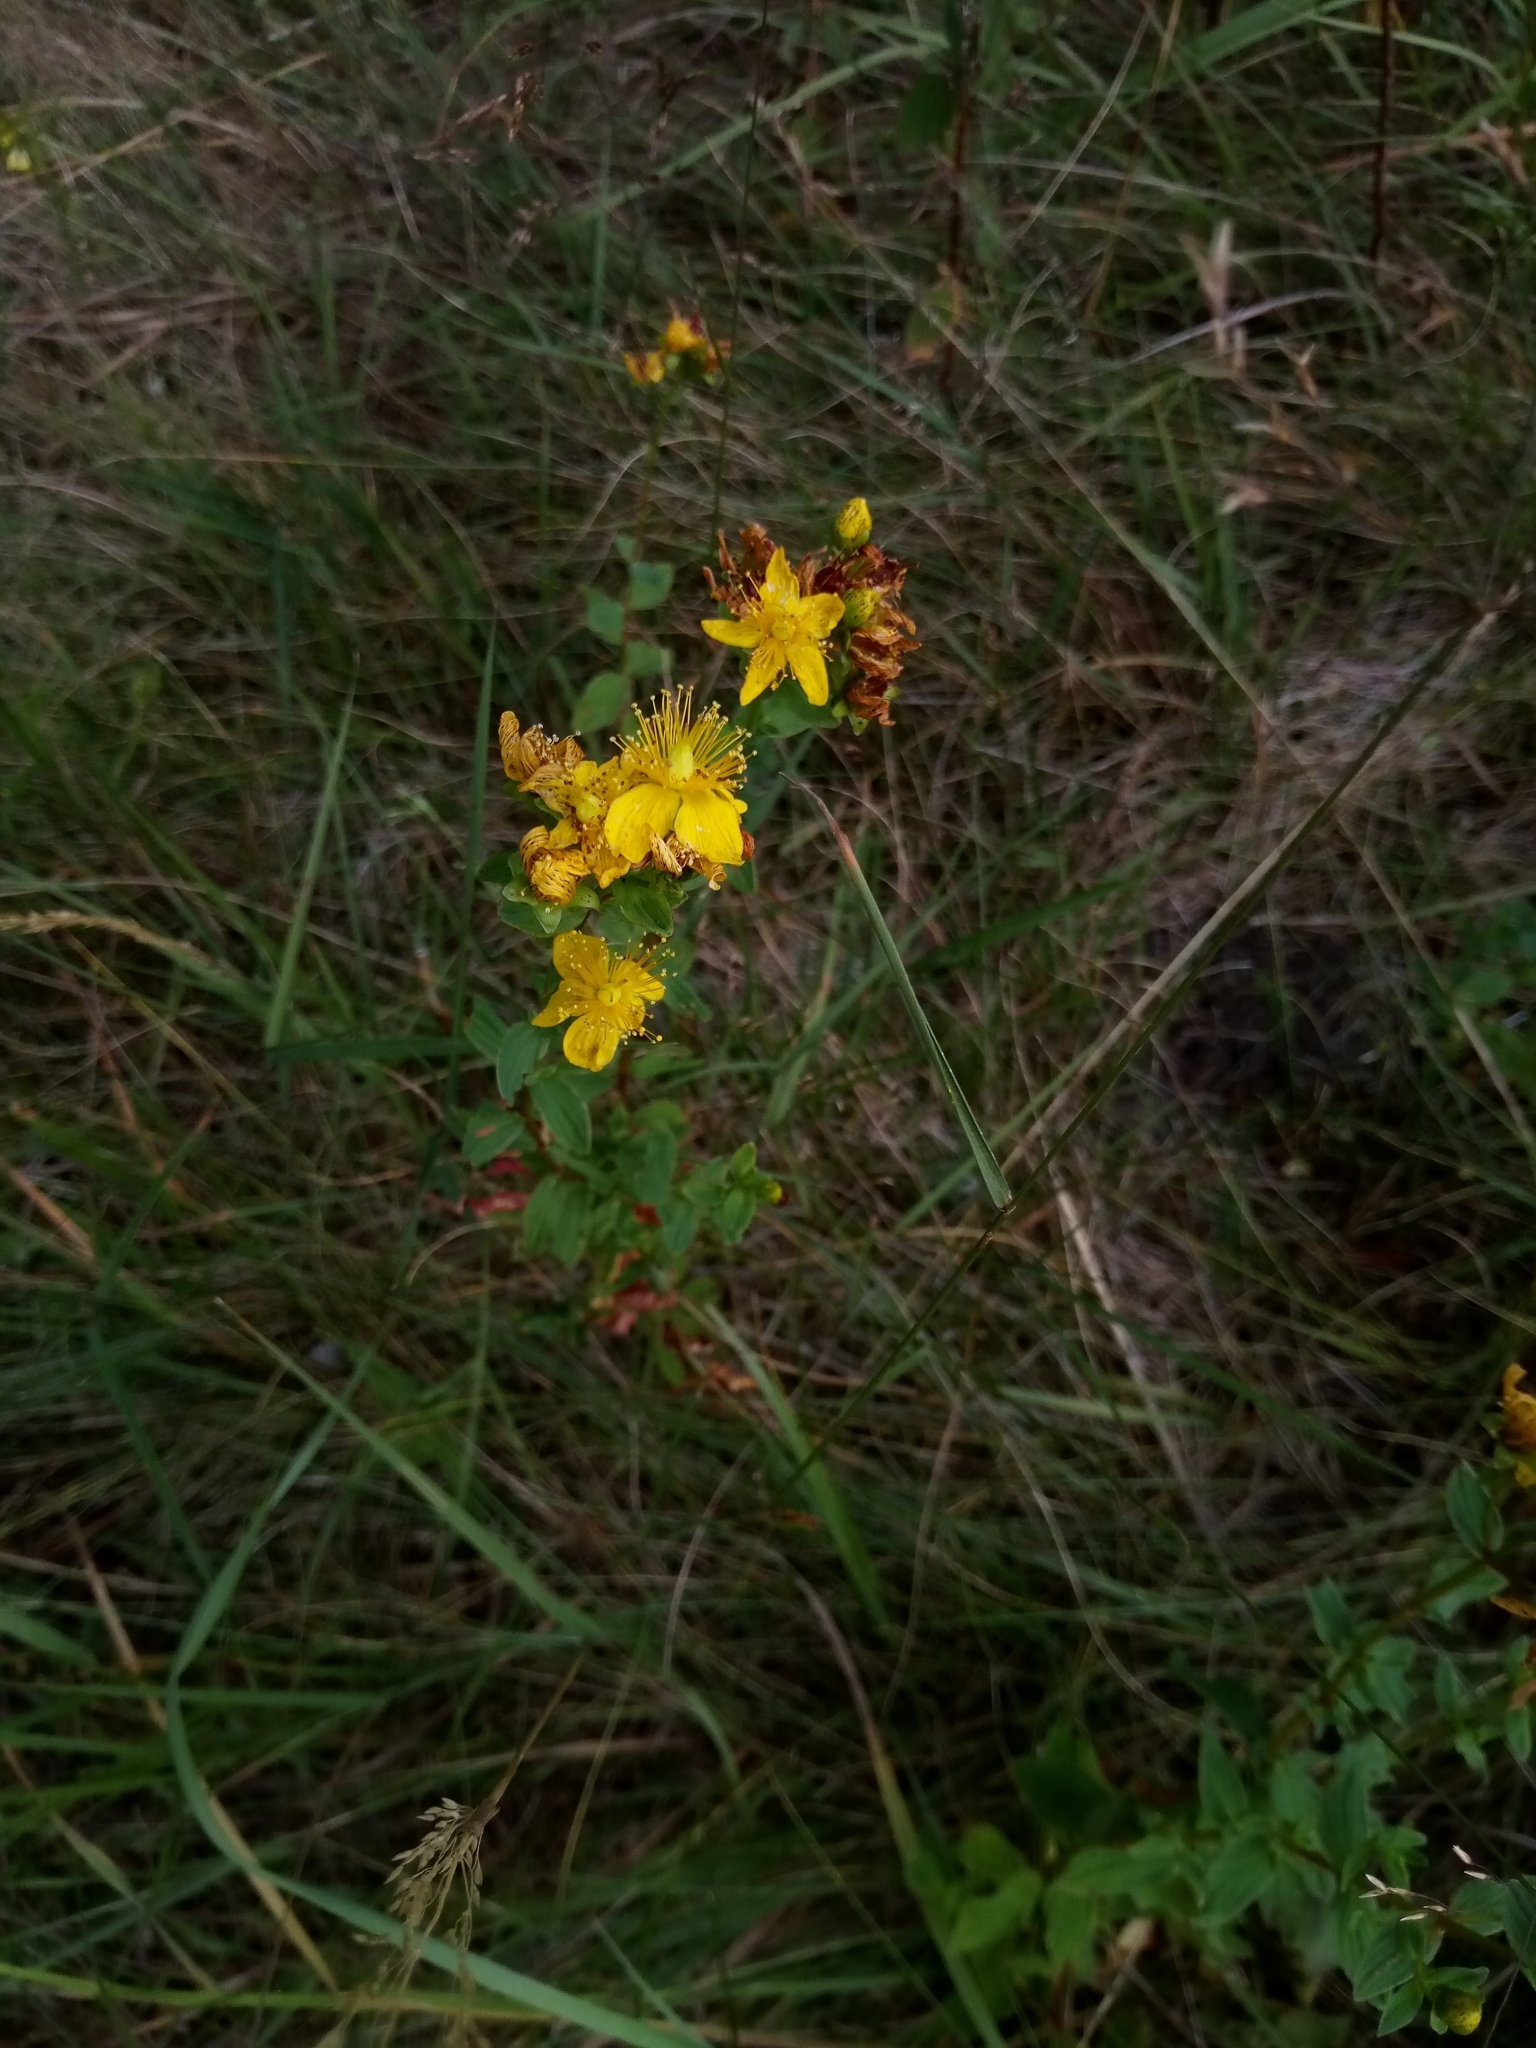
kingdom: Plantae
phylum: Tracheophyta
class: Magnoliopsida
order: Malpighiales
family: Hypericaceae
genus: Hypericum
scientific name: Hypericum maculatum
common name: Imperforate st. john's-wort
